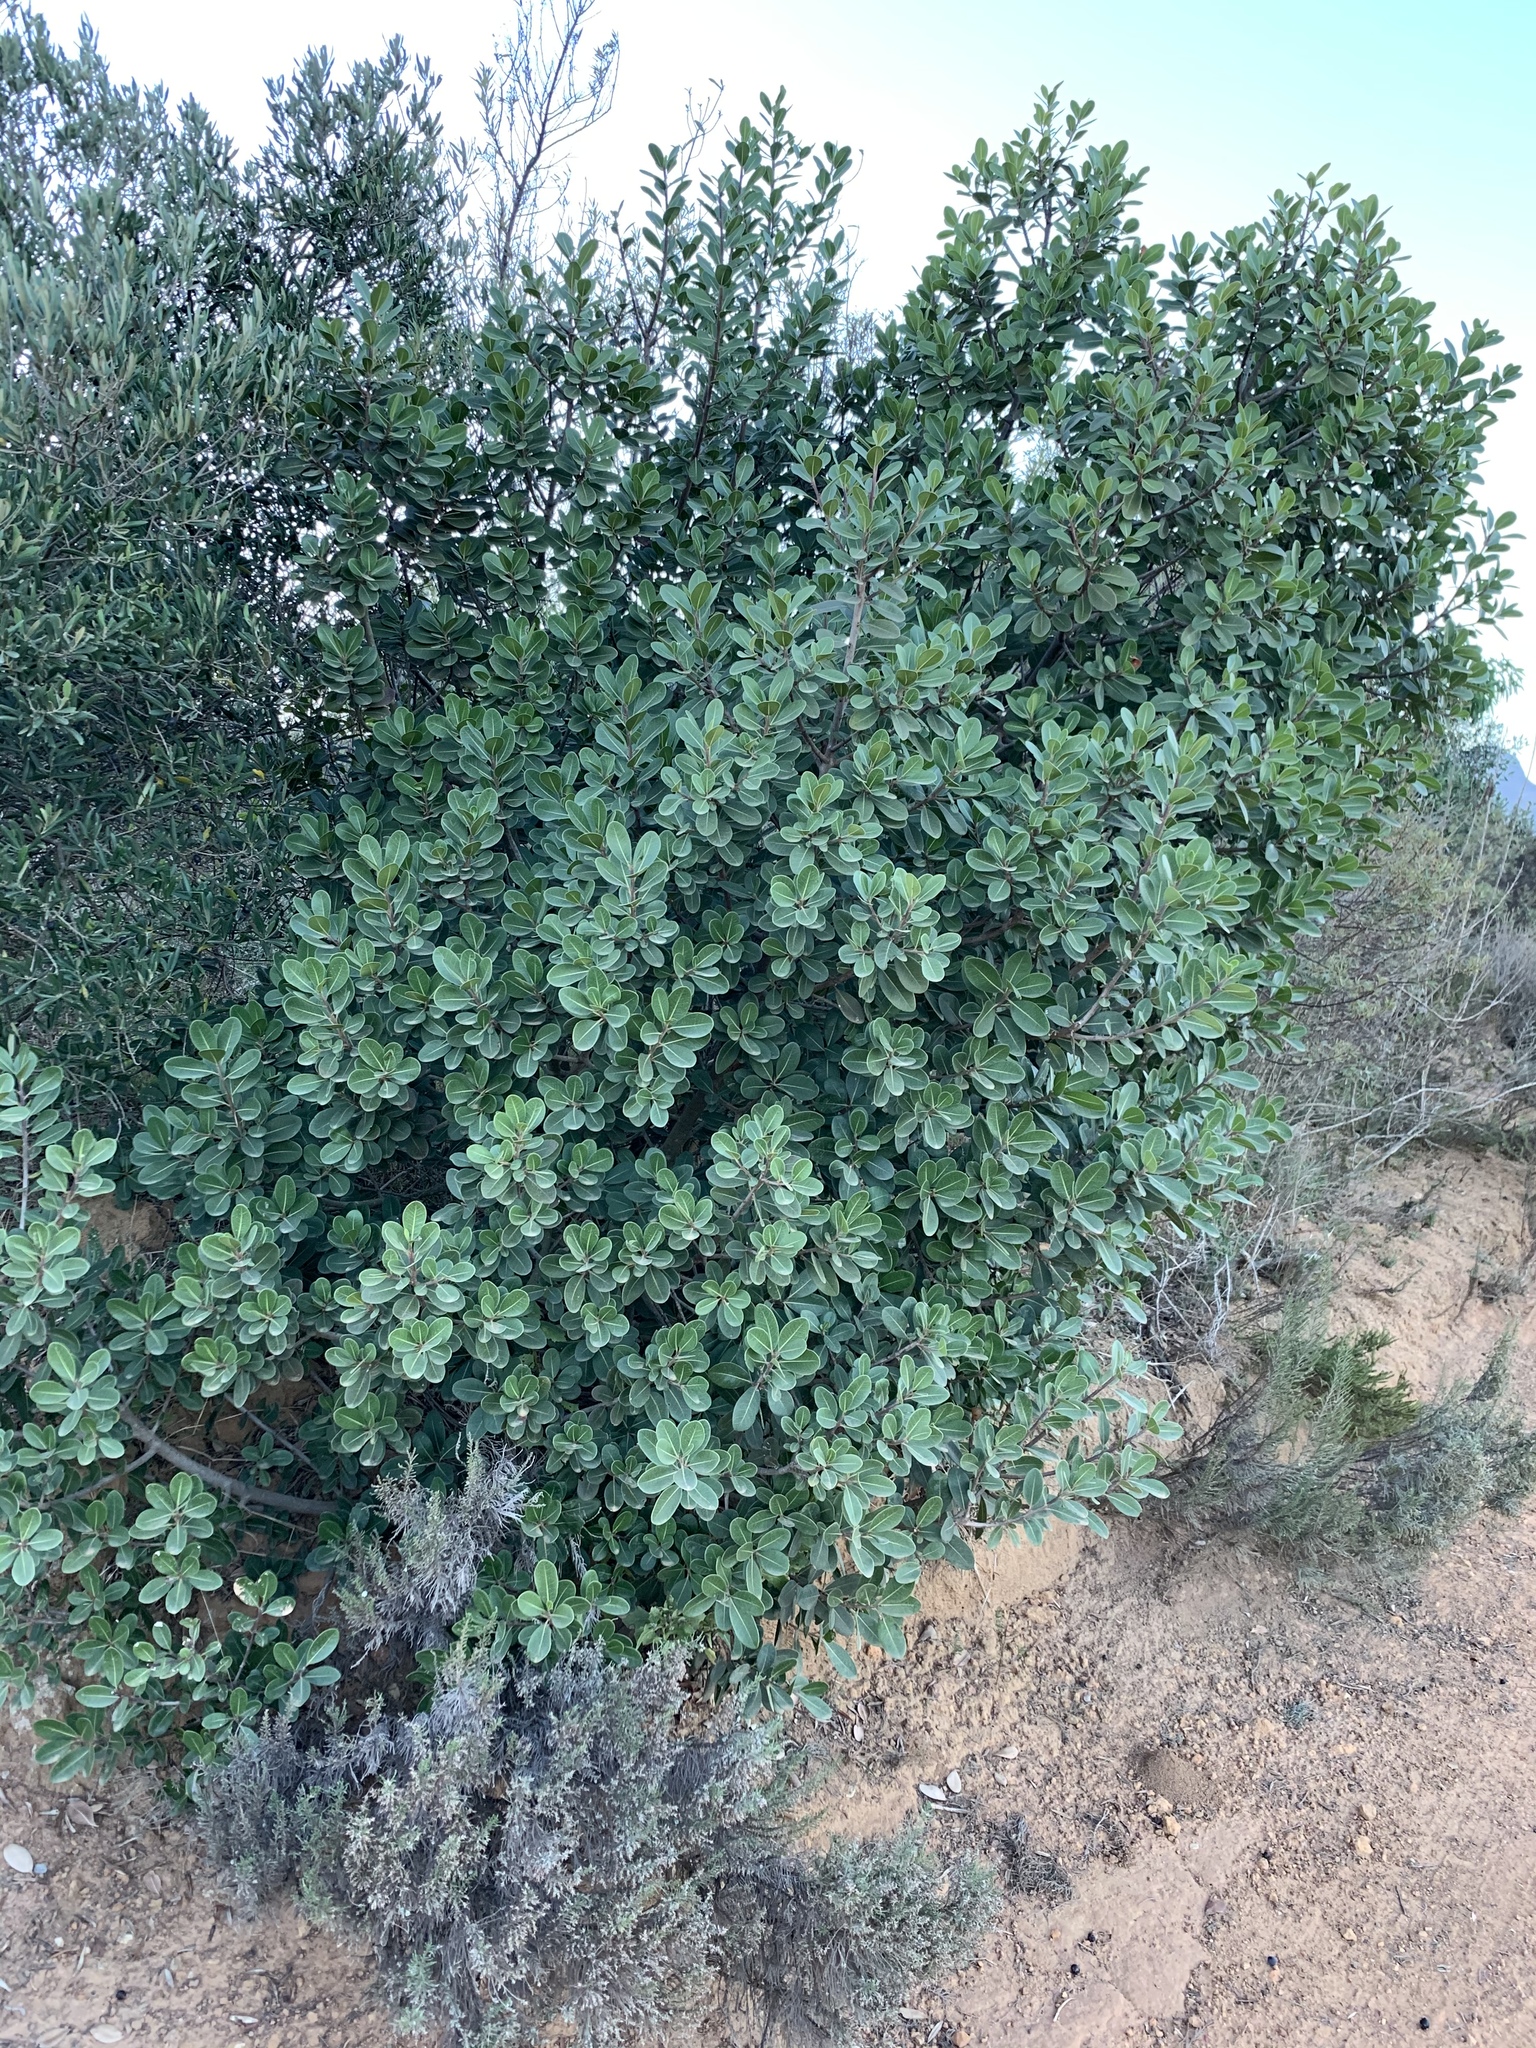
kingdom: Plantae
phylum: Tracheophyta
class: Magnoliopsida
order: Ericales
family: Sapotaceae
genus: Sideroxylon
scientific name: Sideroxylon inerme
